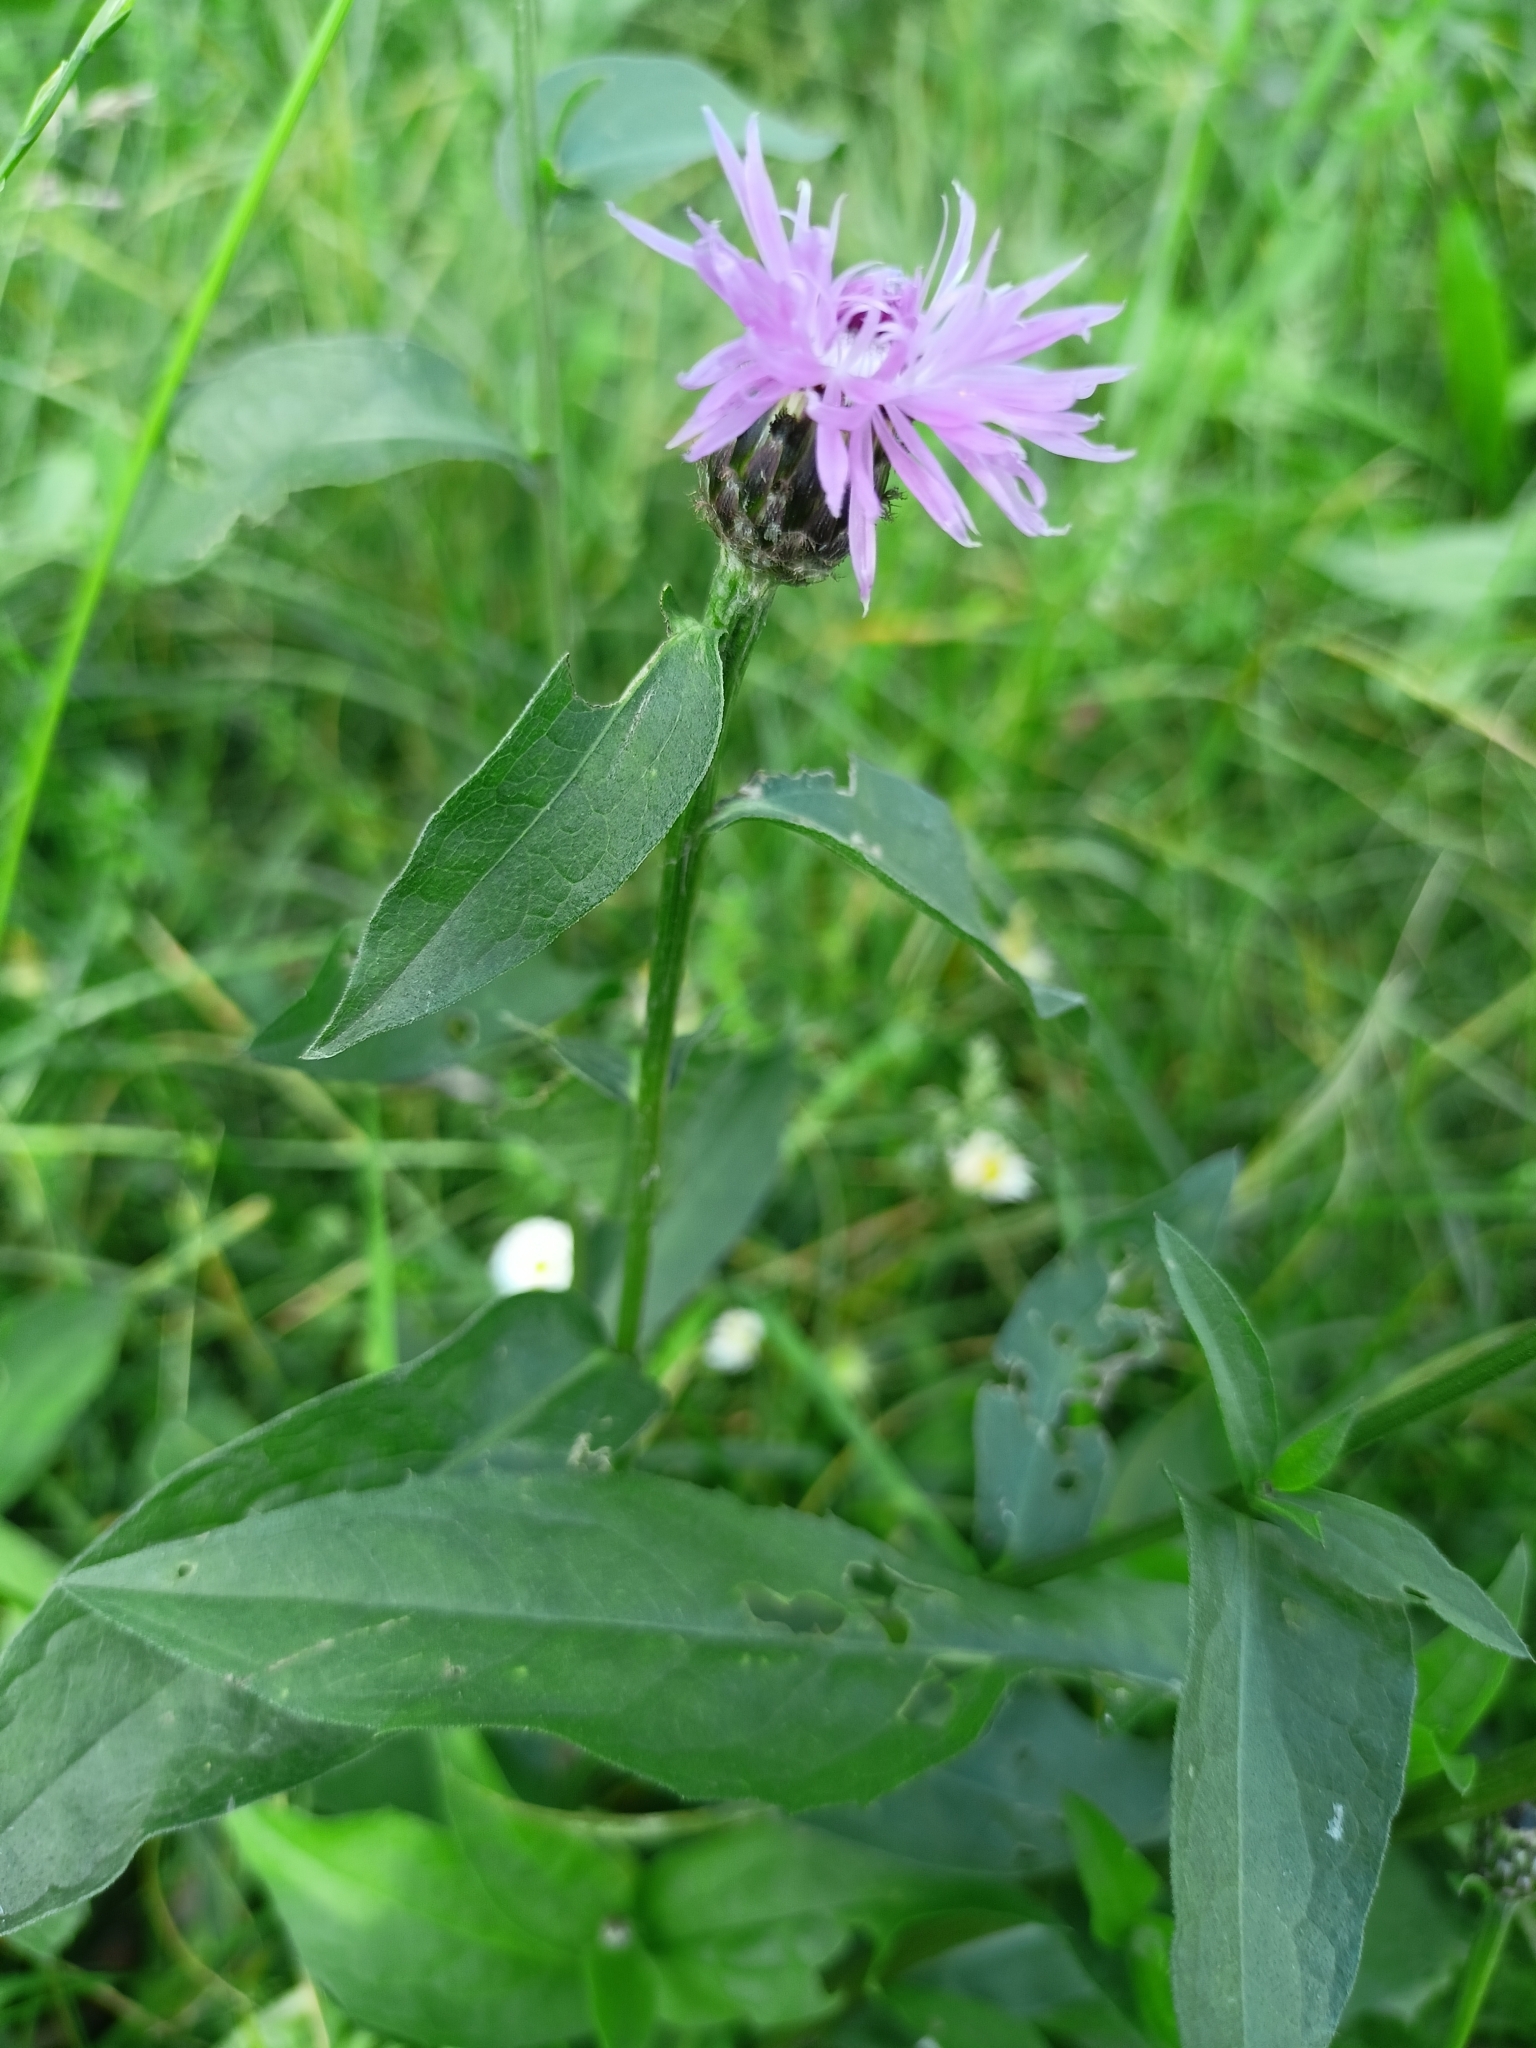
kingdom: Plantae
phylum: Tracheophyta
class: Magnoliopsida
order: Asterales
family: Asteraceae
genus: Centaurea
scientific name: Centaurea nigrescens
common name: Tyrol knapweed
